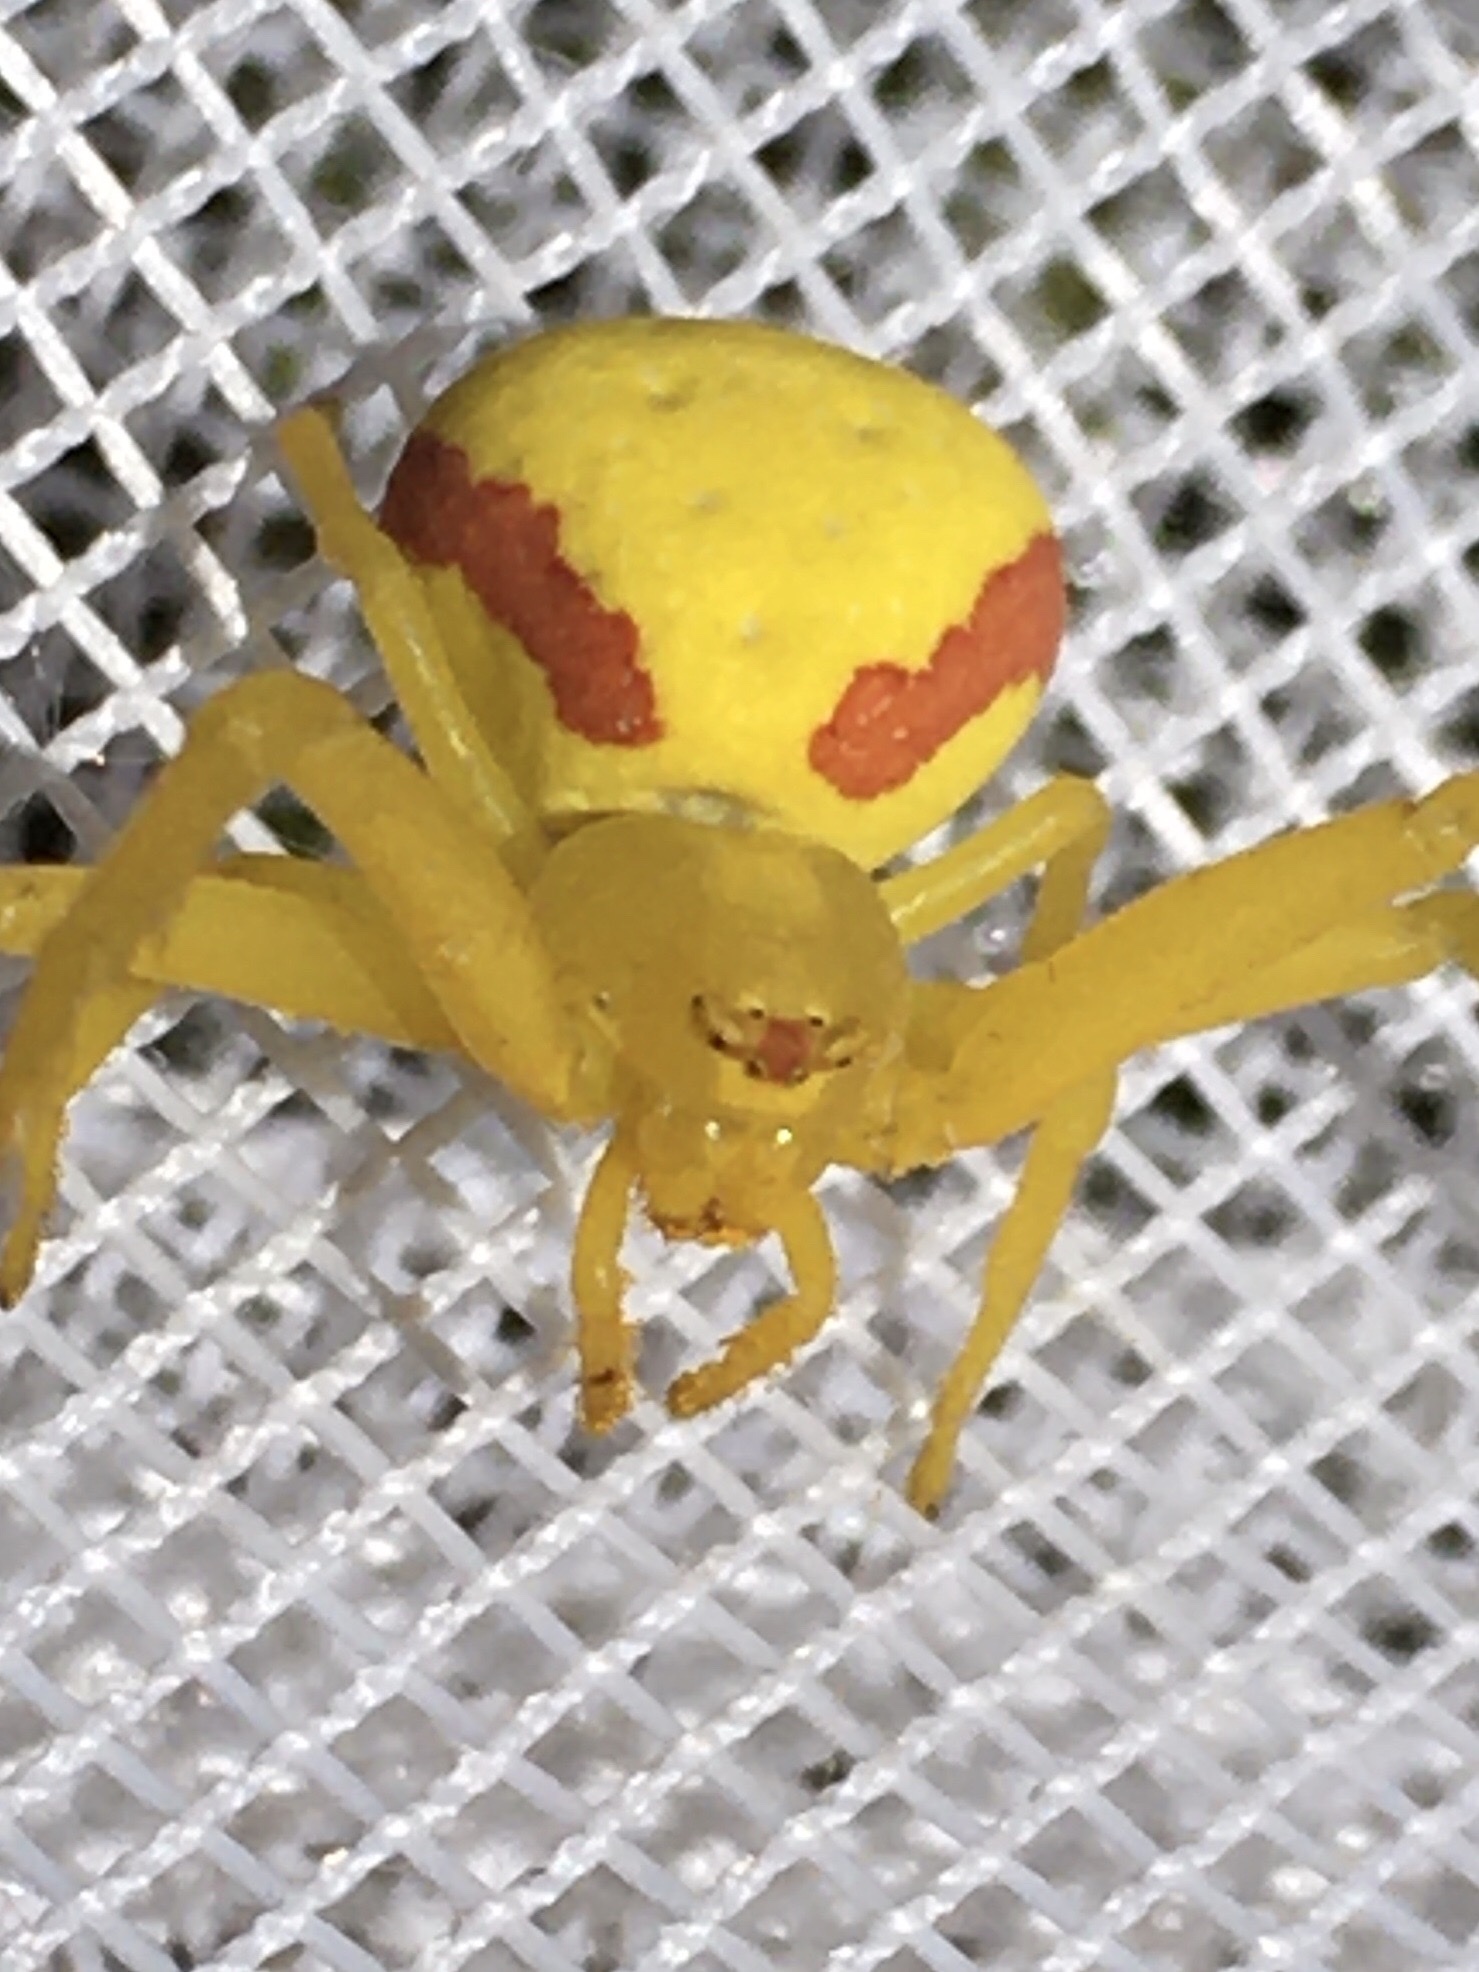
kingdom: Animalia
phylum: Arthropoda
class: Arachnida
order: Araneae
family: Thomisidae
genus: Misumena
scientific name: Misumena vatia
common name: Goldenrod crab spider
